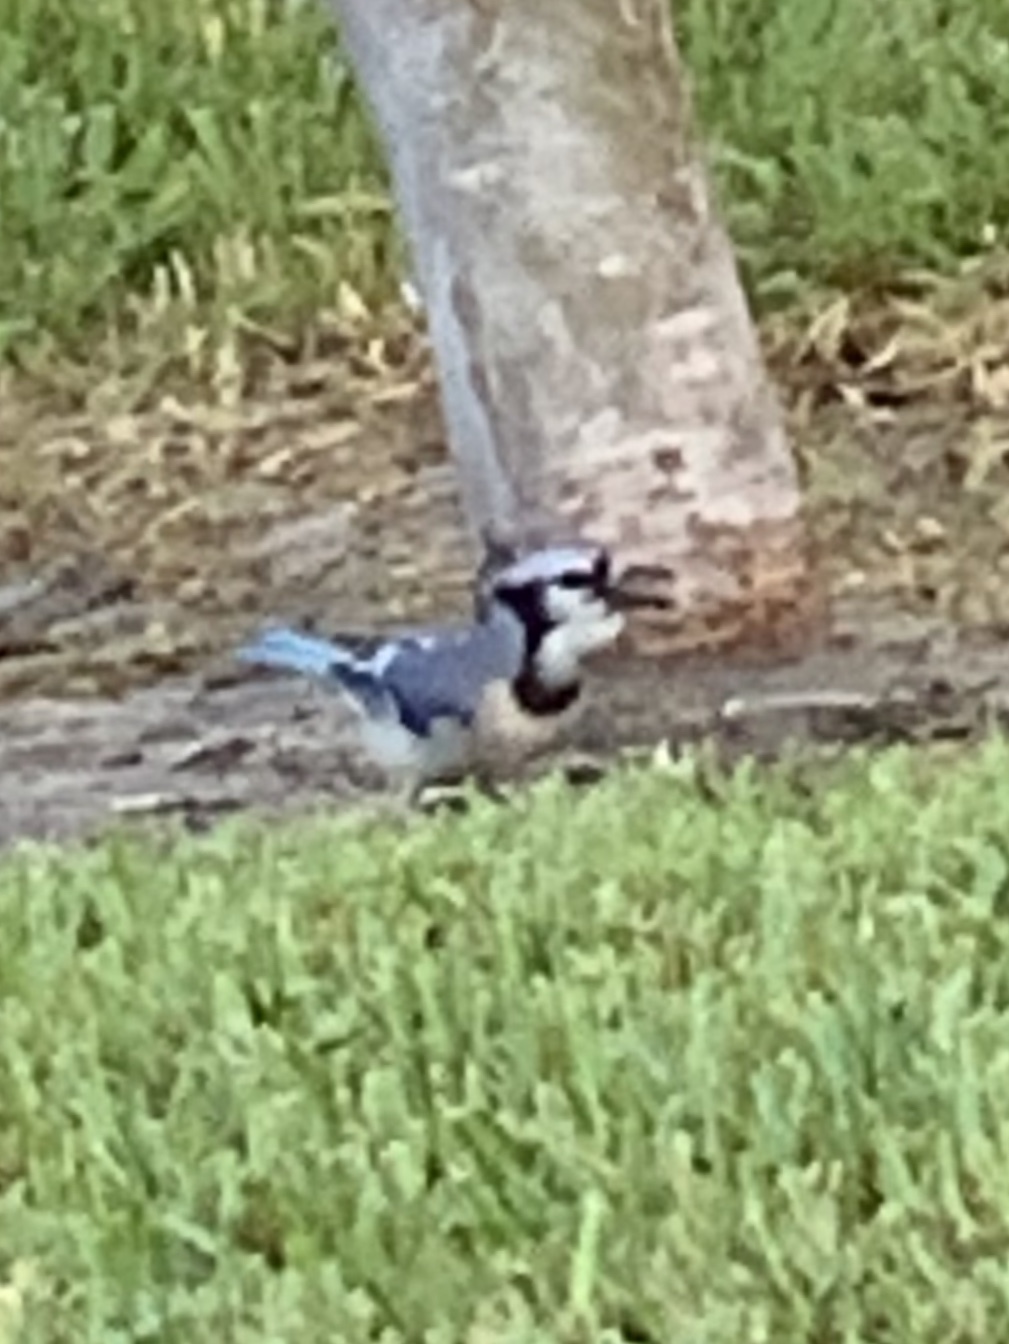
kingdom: Animalia
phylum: Chordata
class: Aves
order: Passeriformes
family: Corvidae
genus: Cyanocitta
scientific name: Cyanocitta cristata
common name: Blue jay
